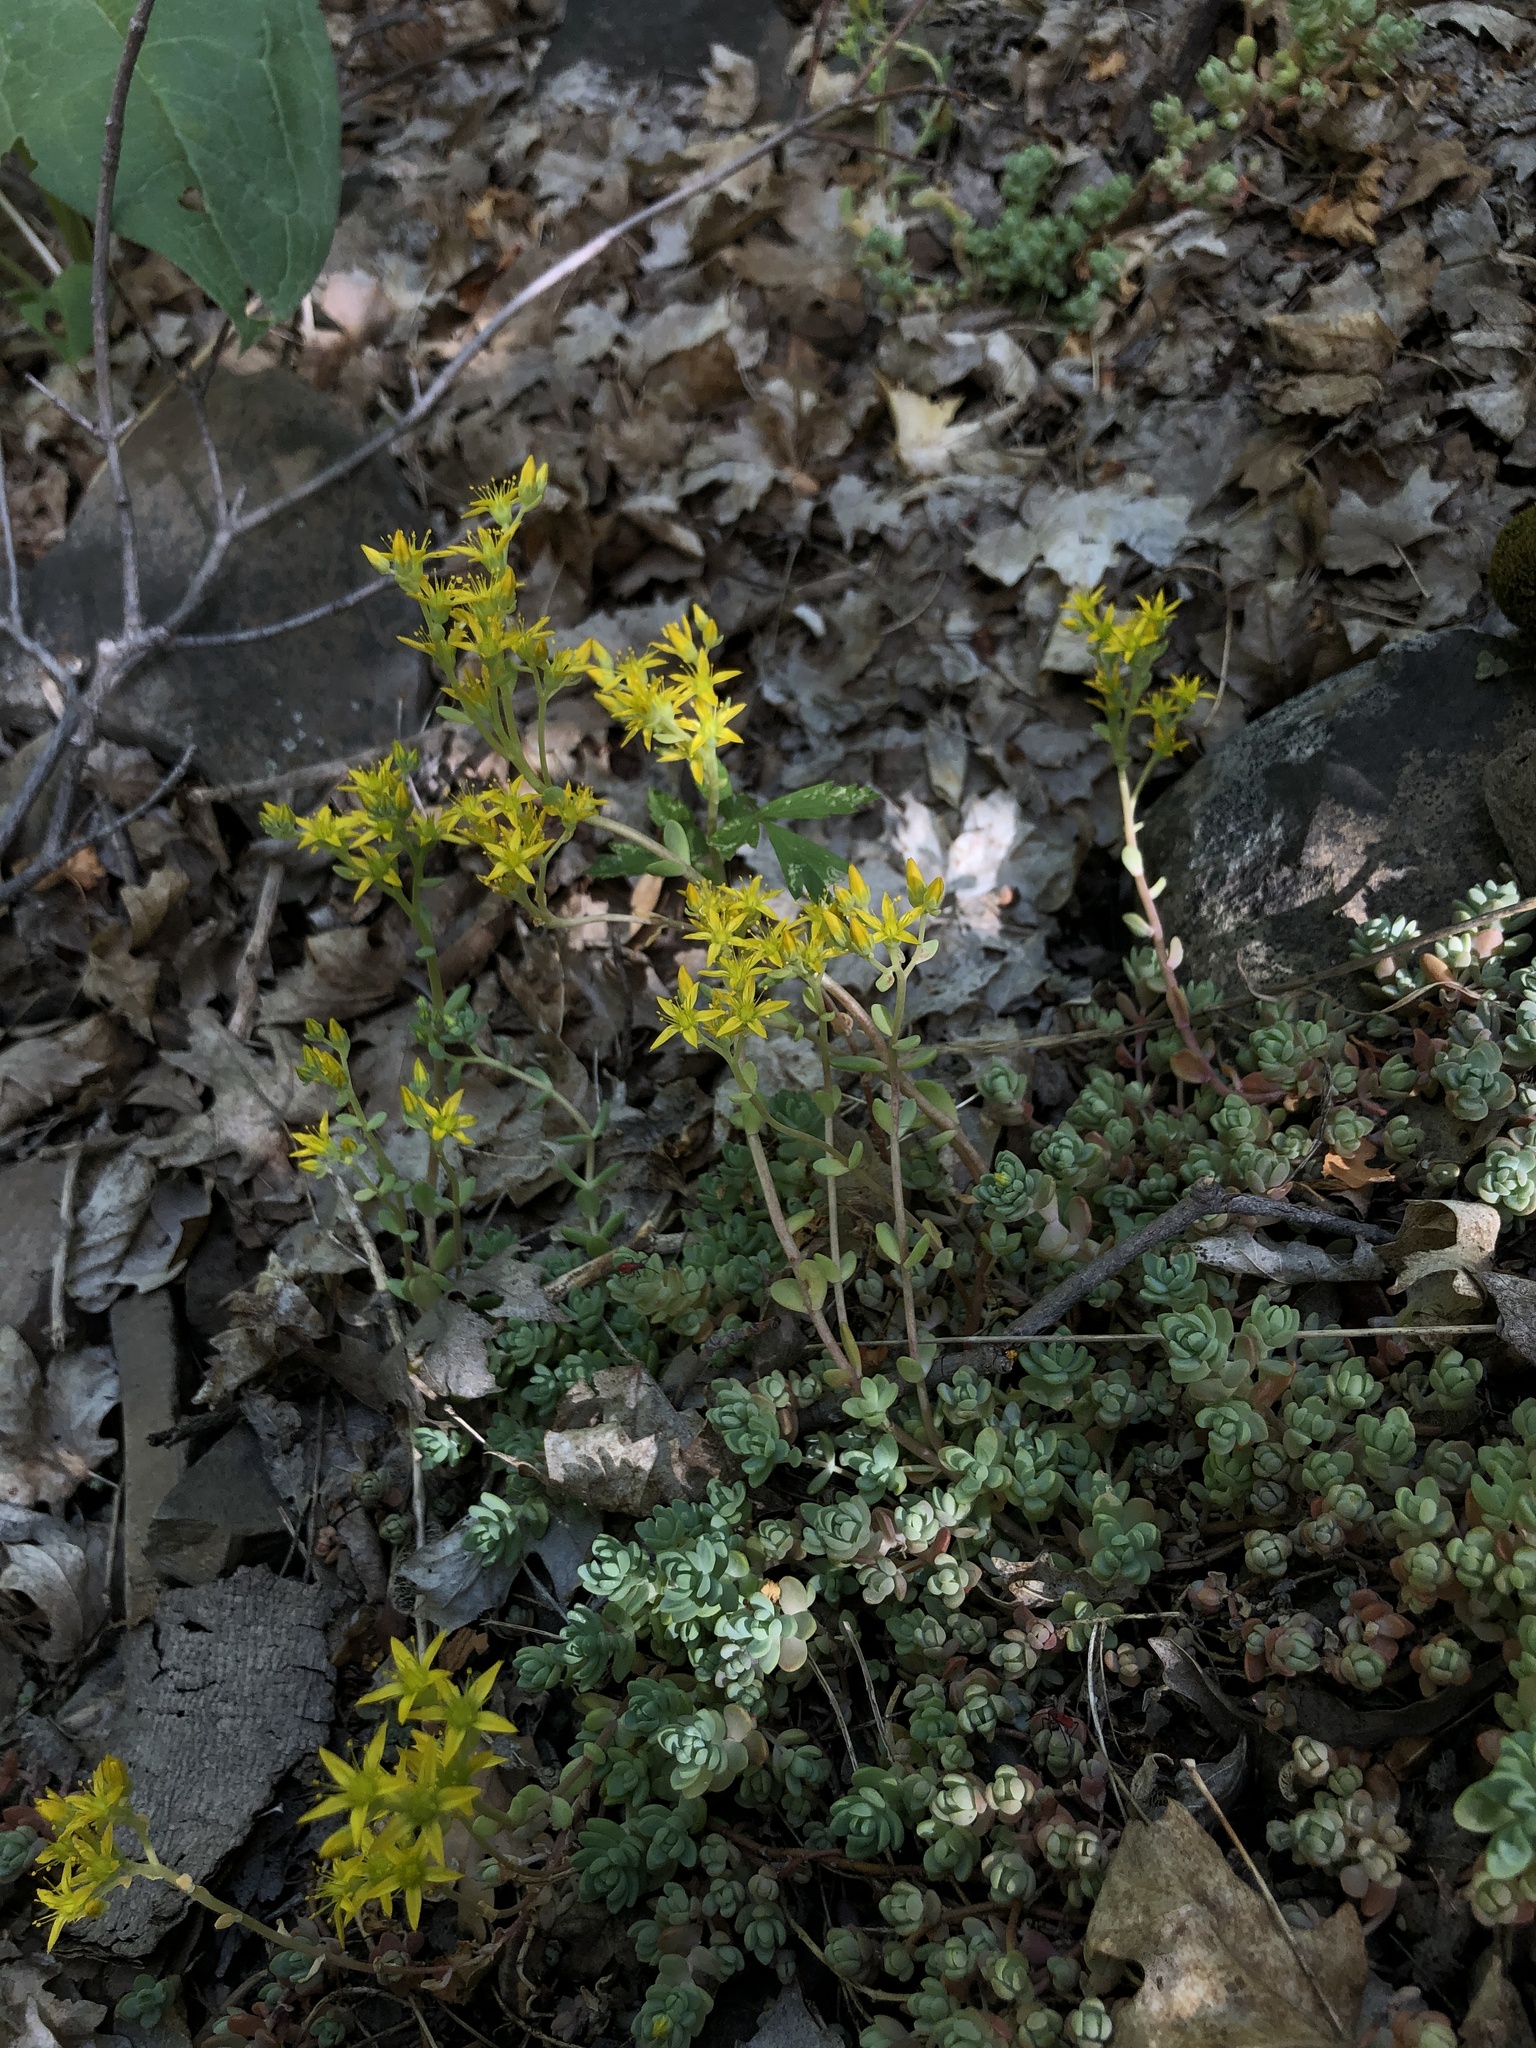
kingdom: Plantae
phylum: Tracheophyta
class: Magnoliopsida
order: Saxifragales
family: Crassulaceae
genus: Sedum
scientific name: Sedum lanceolatum
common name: Common stonecrop
